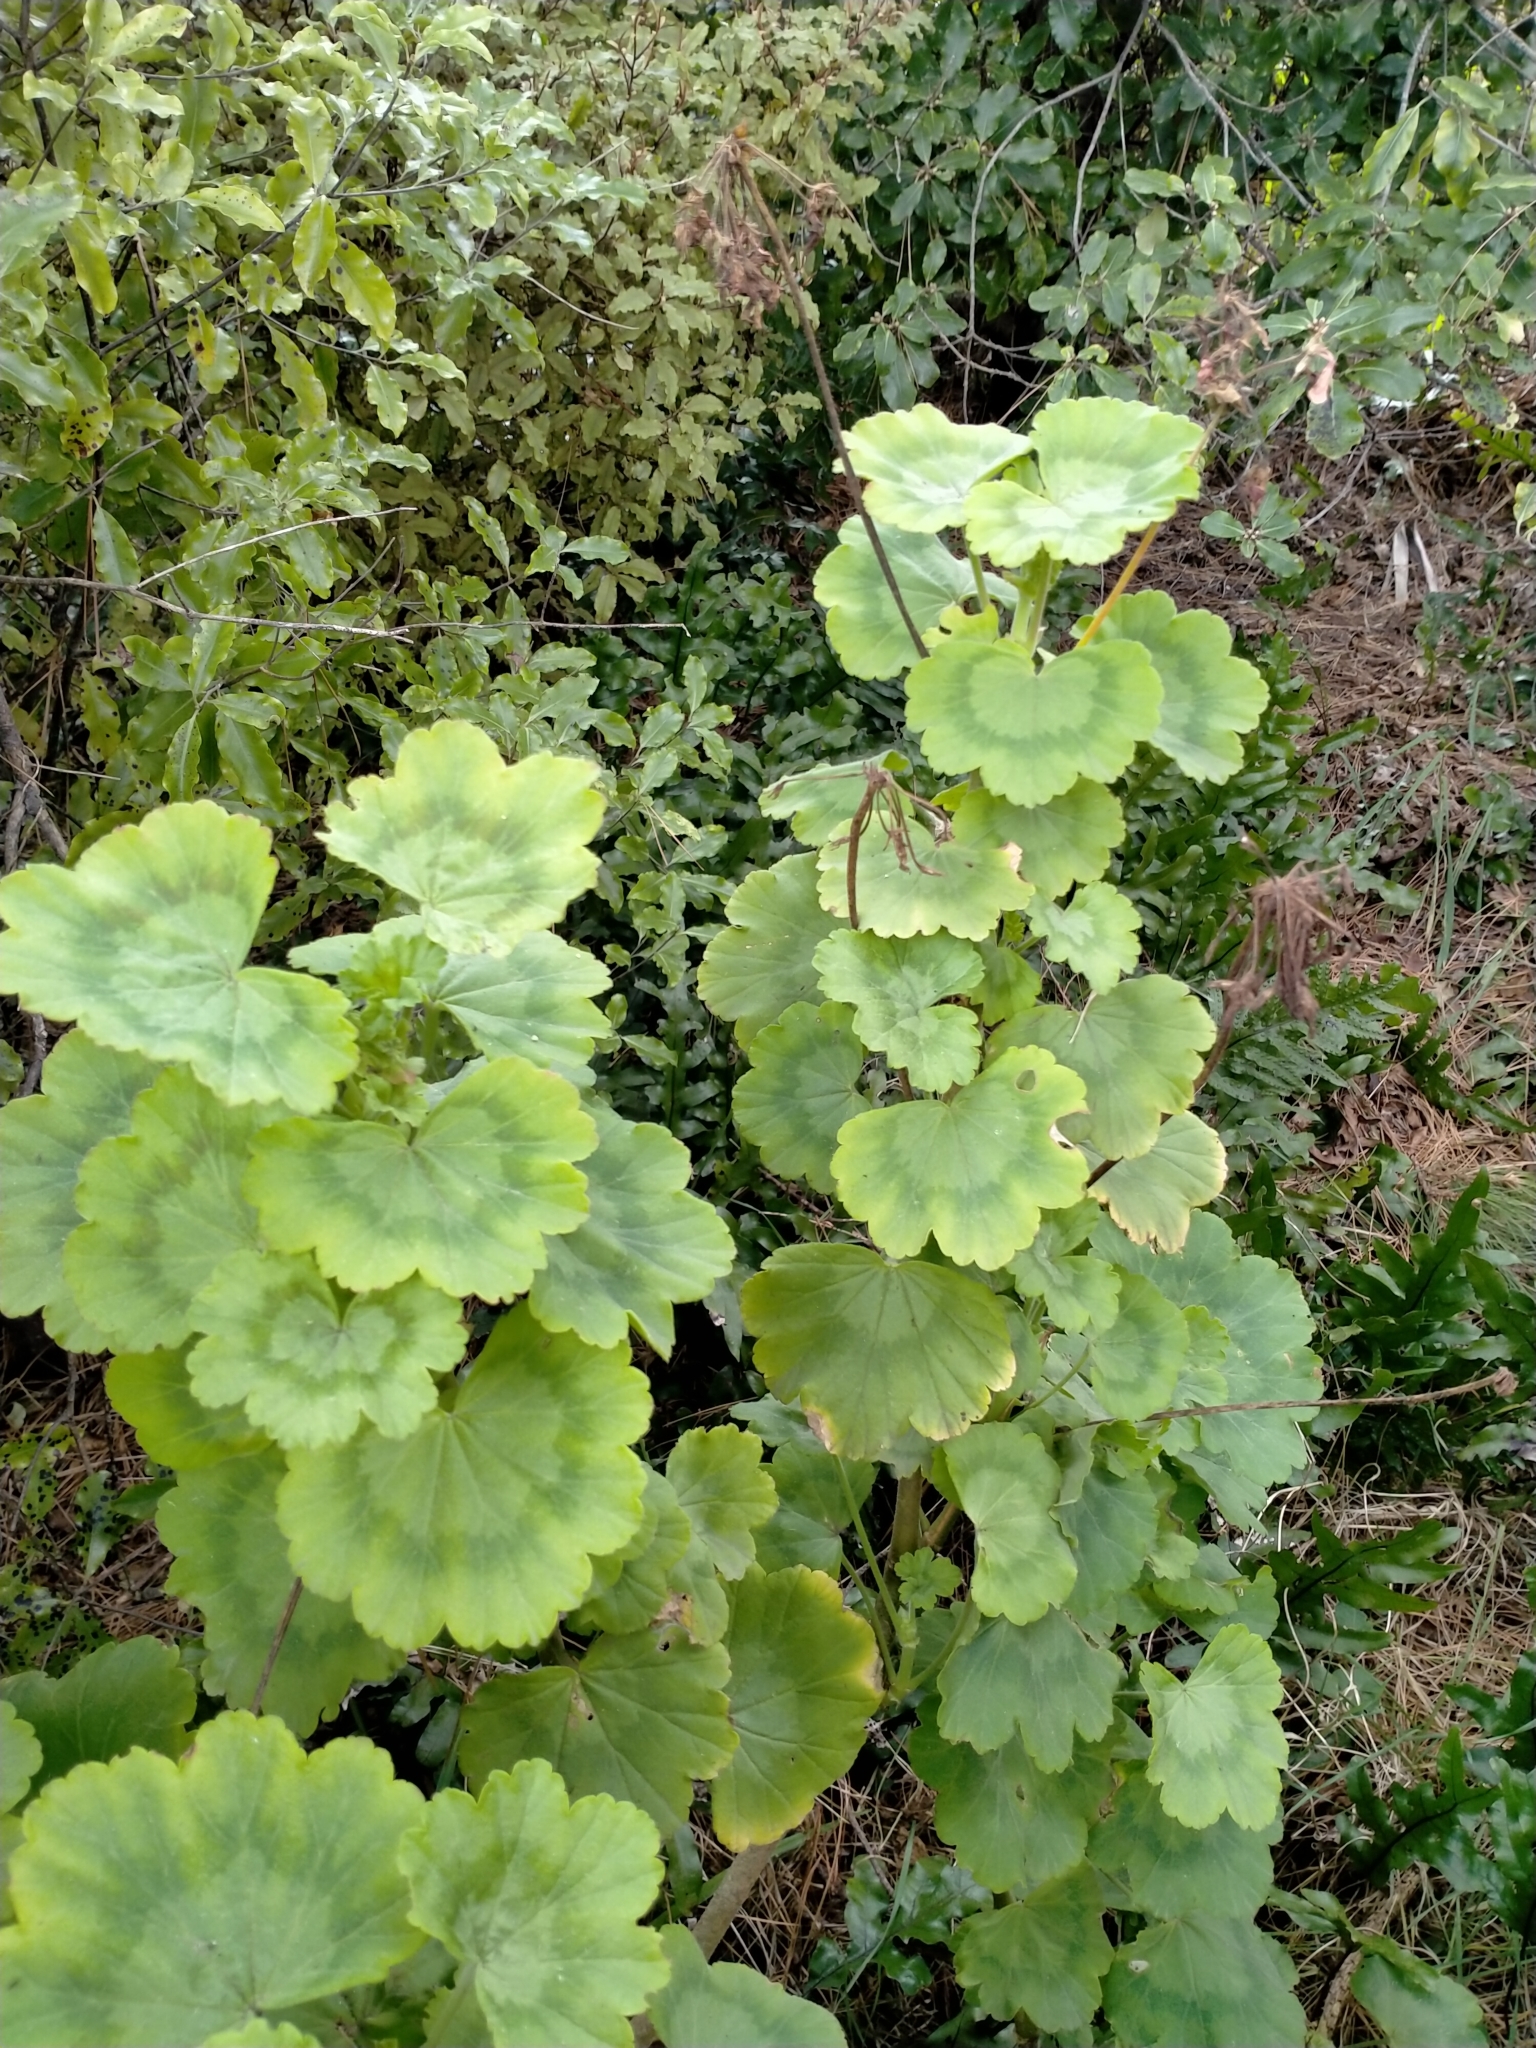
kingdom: Plantae
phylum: Tracheophyta
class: Magnoliopsida
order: Geraniales
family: Geraniaceae
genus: Pelargonium
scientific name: Pelargonium hybridum
